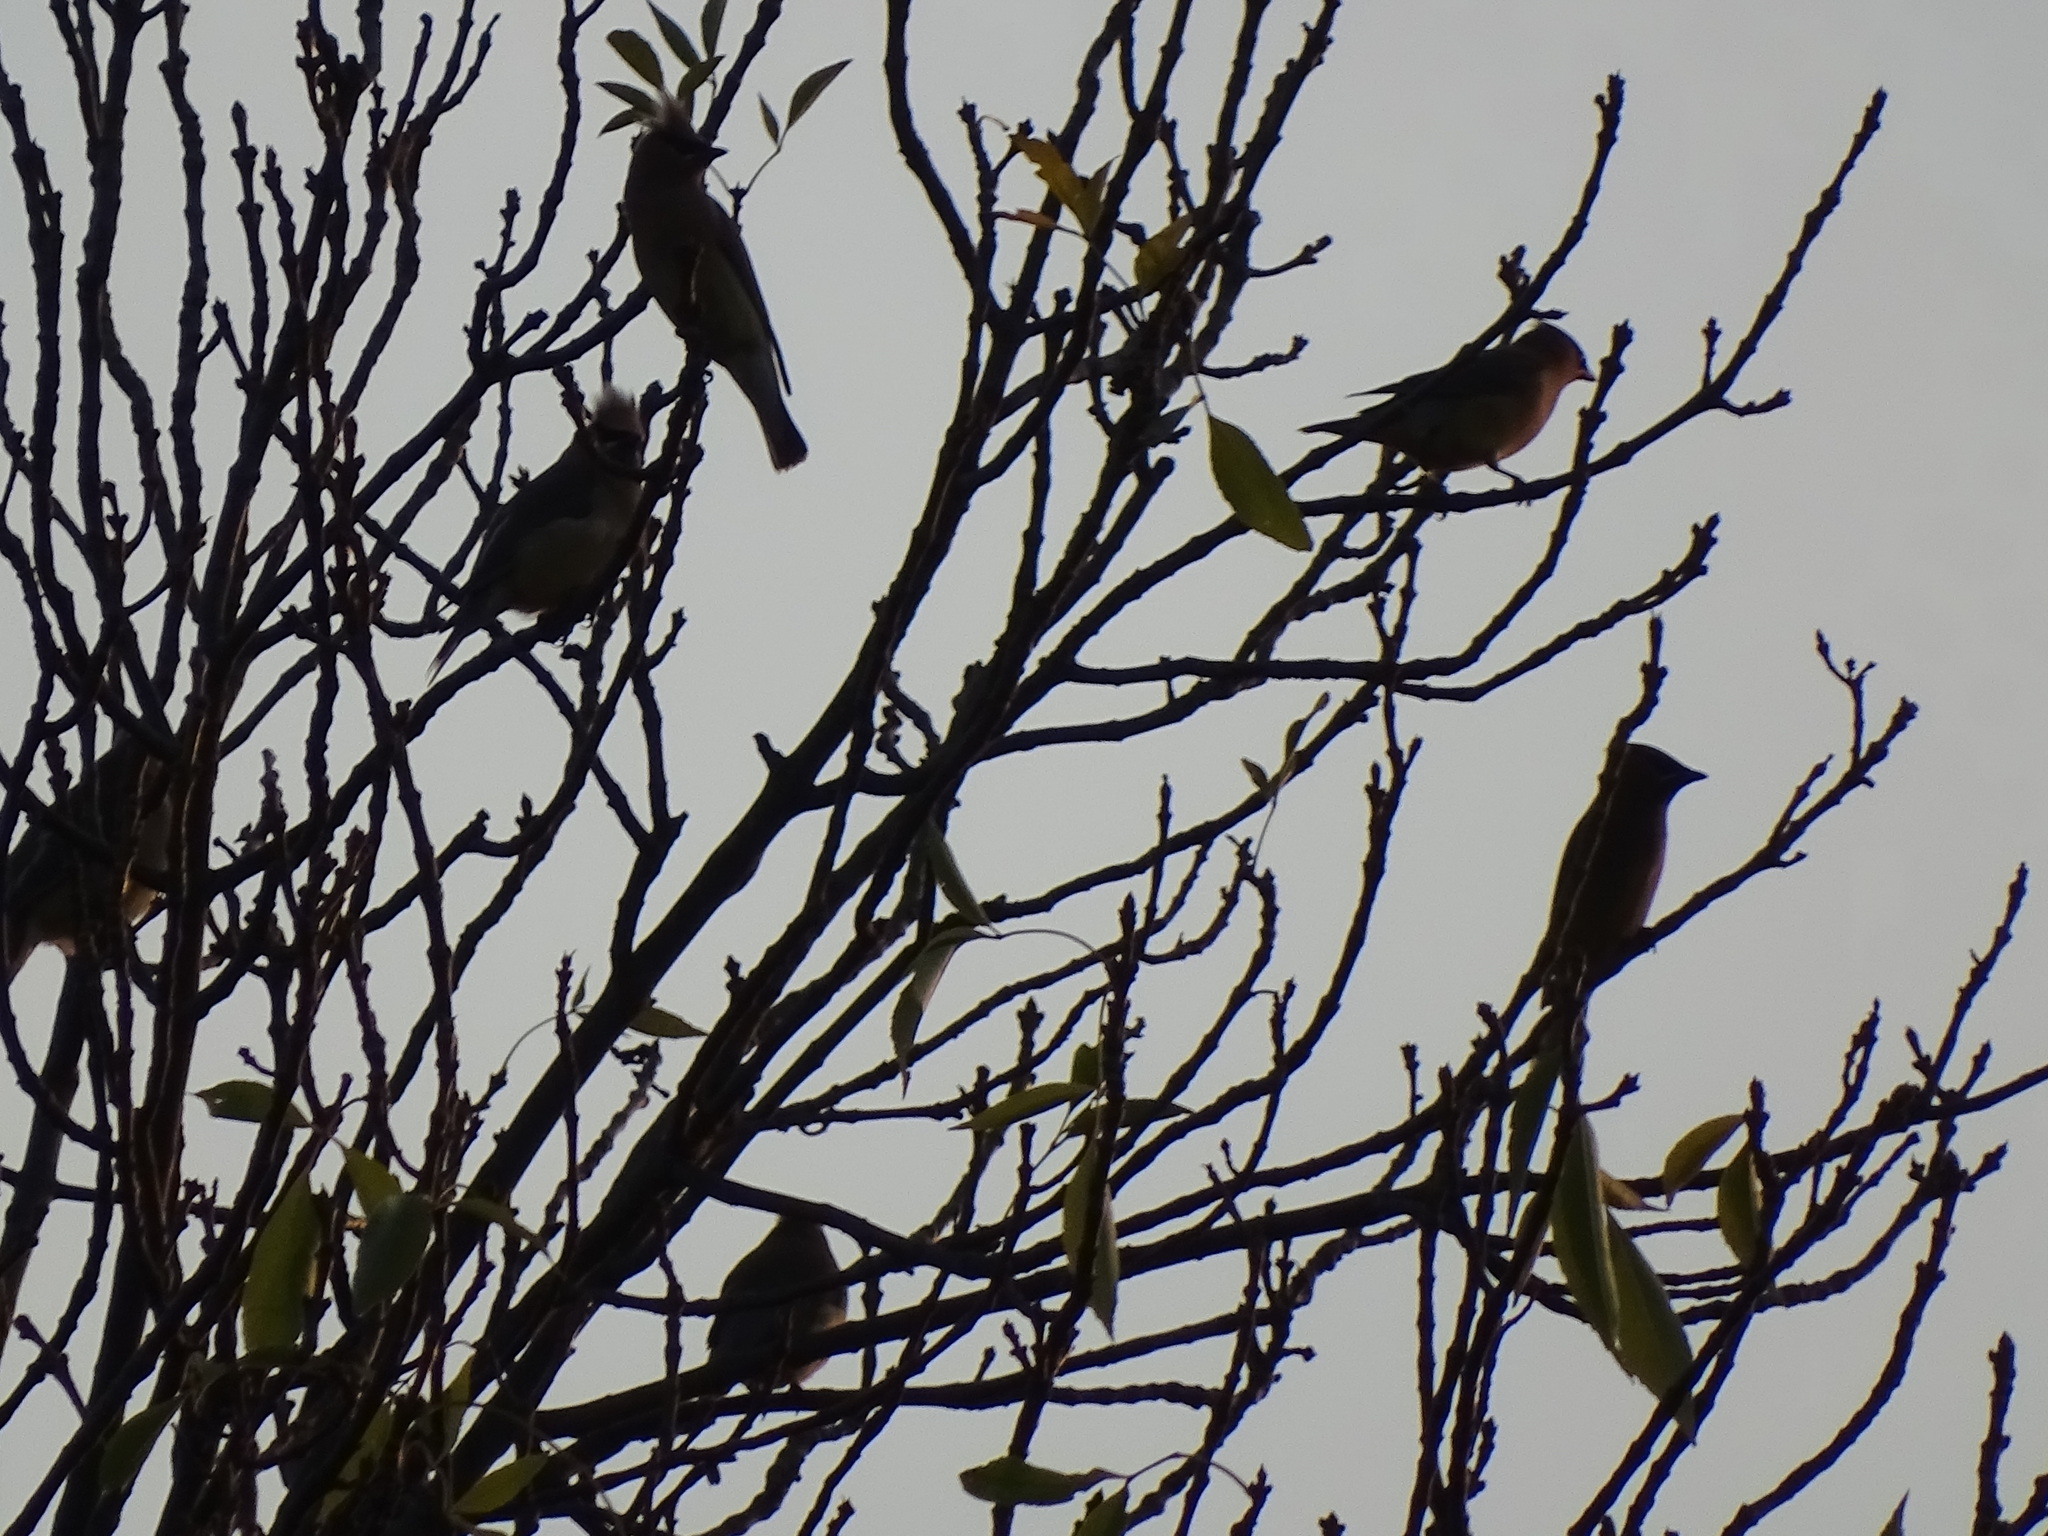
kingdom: Animalia
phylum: Chordata
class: Aves
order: Passeriformes
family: Bombycillidae
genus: Bombycilla
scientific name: Bombycilla cedrorum
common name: Cedar waxwing
